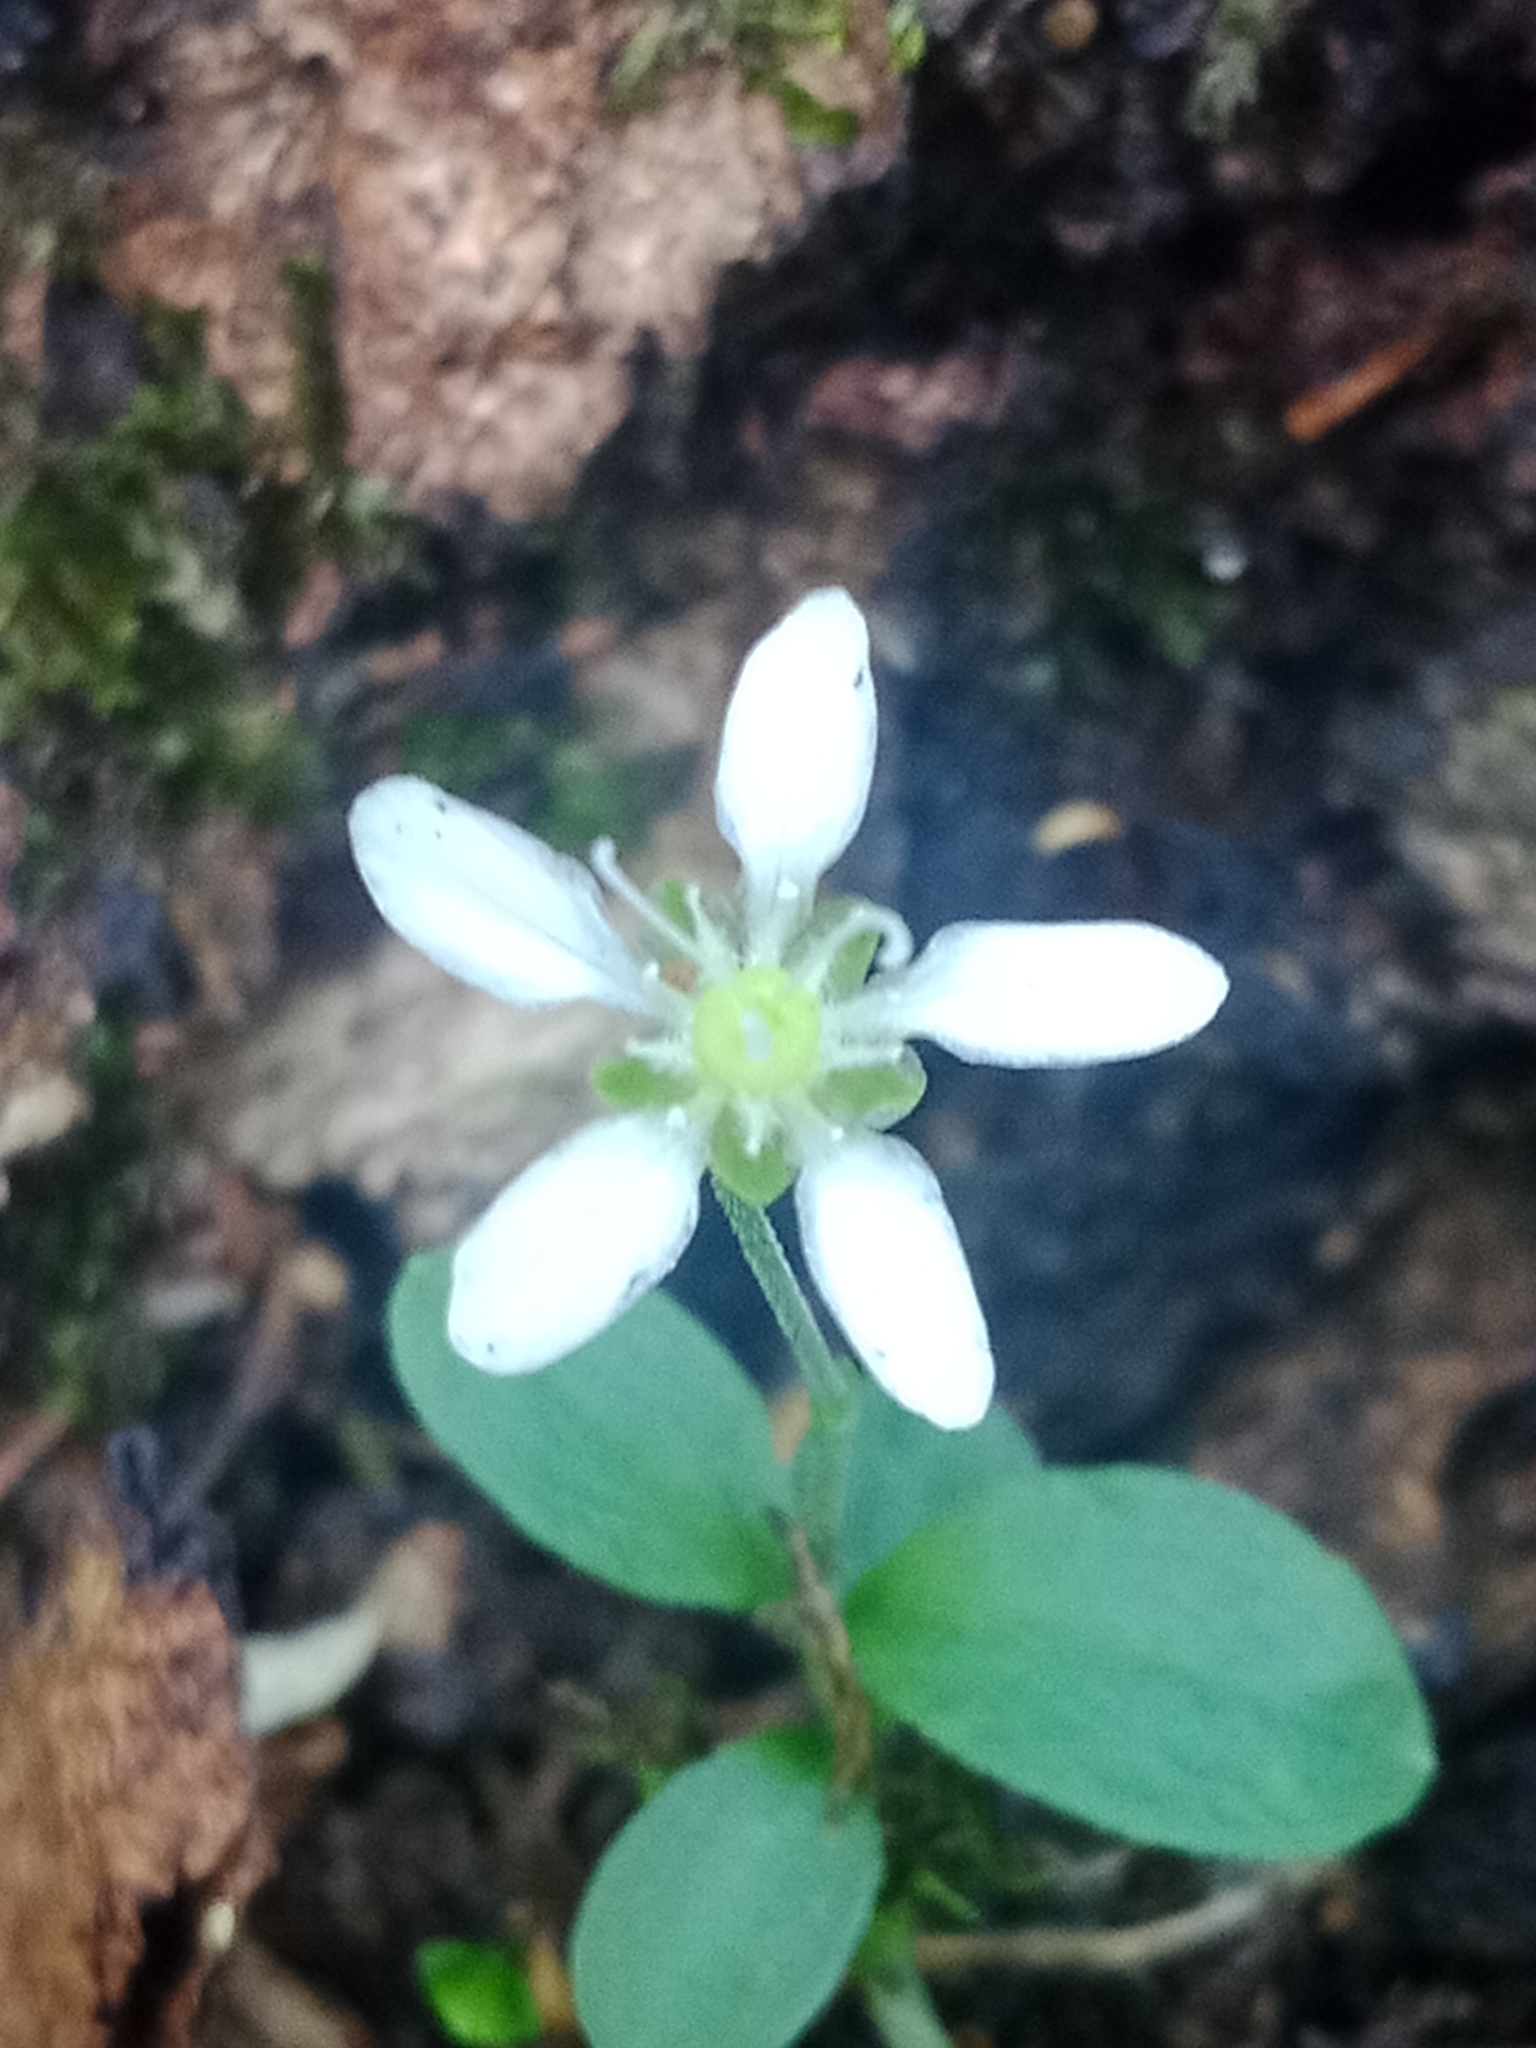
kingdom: Plantae
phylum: Tracheophyta
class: Magnoliopsida
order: Caryophyllales
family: Caryophyllaceae
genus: Moehringia
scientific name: Moehringia lateriflora
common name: Blunt-leaved sandwort
